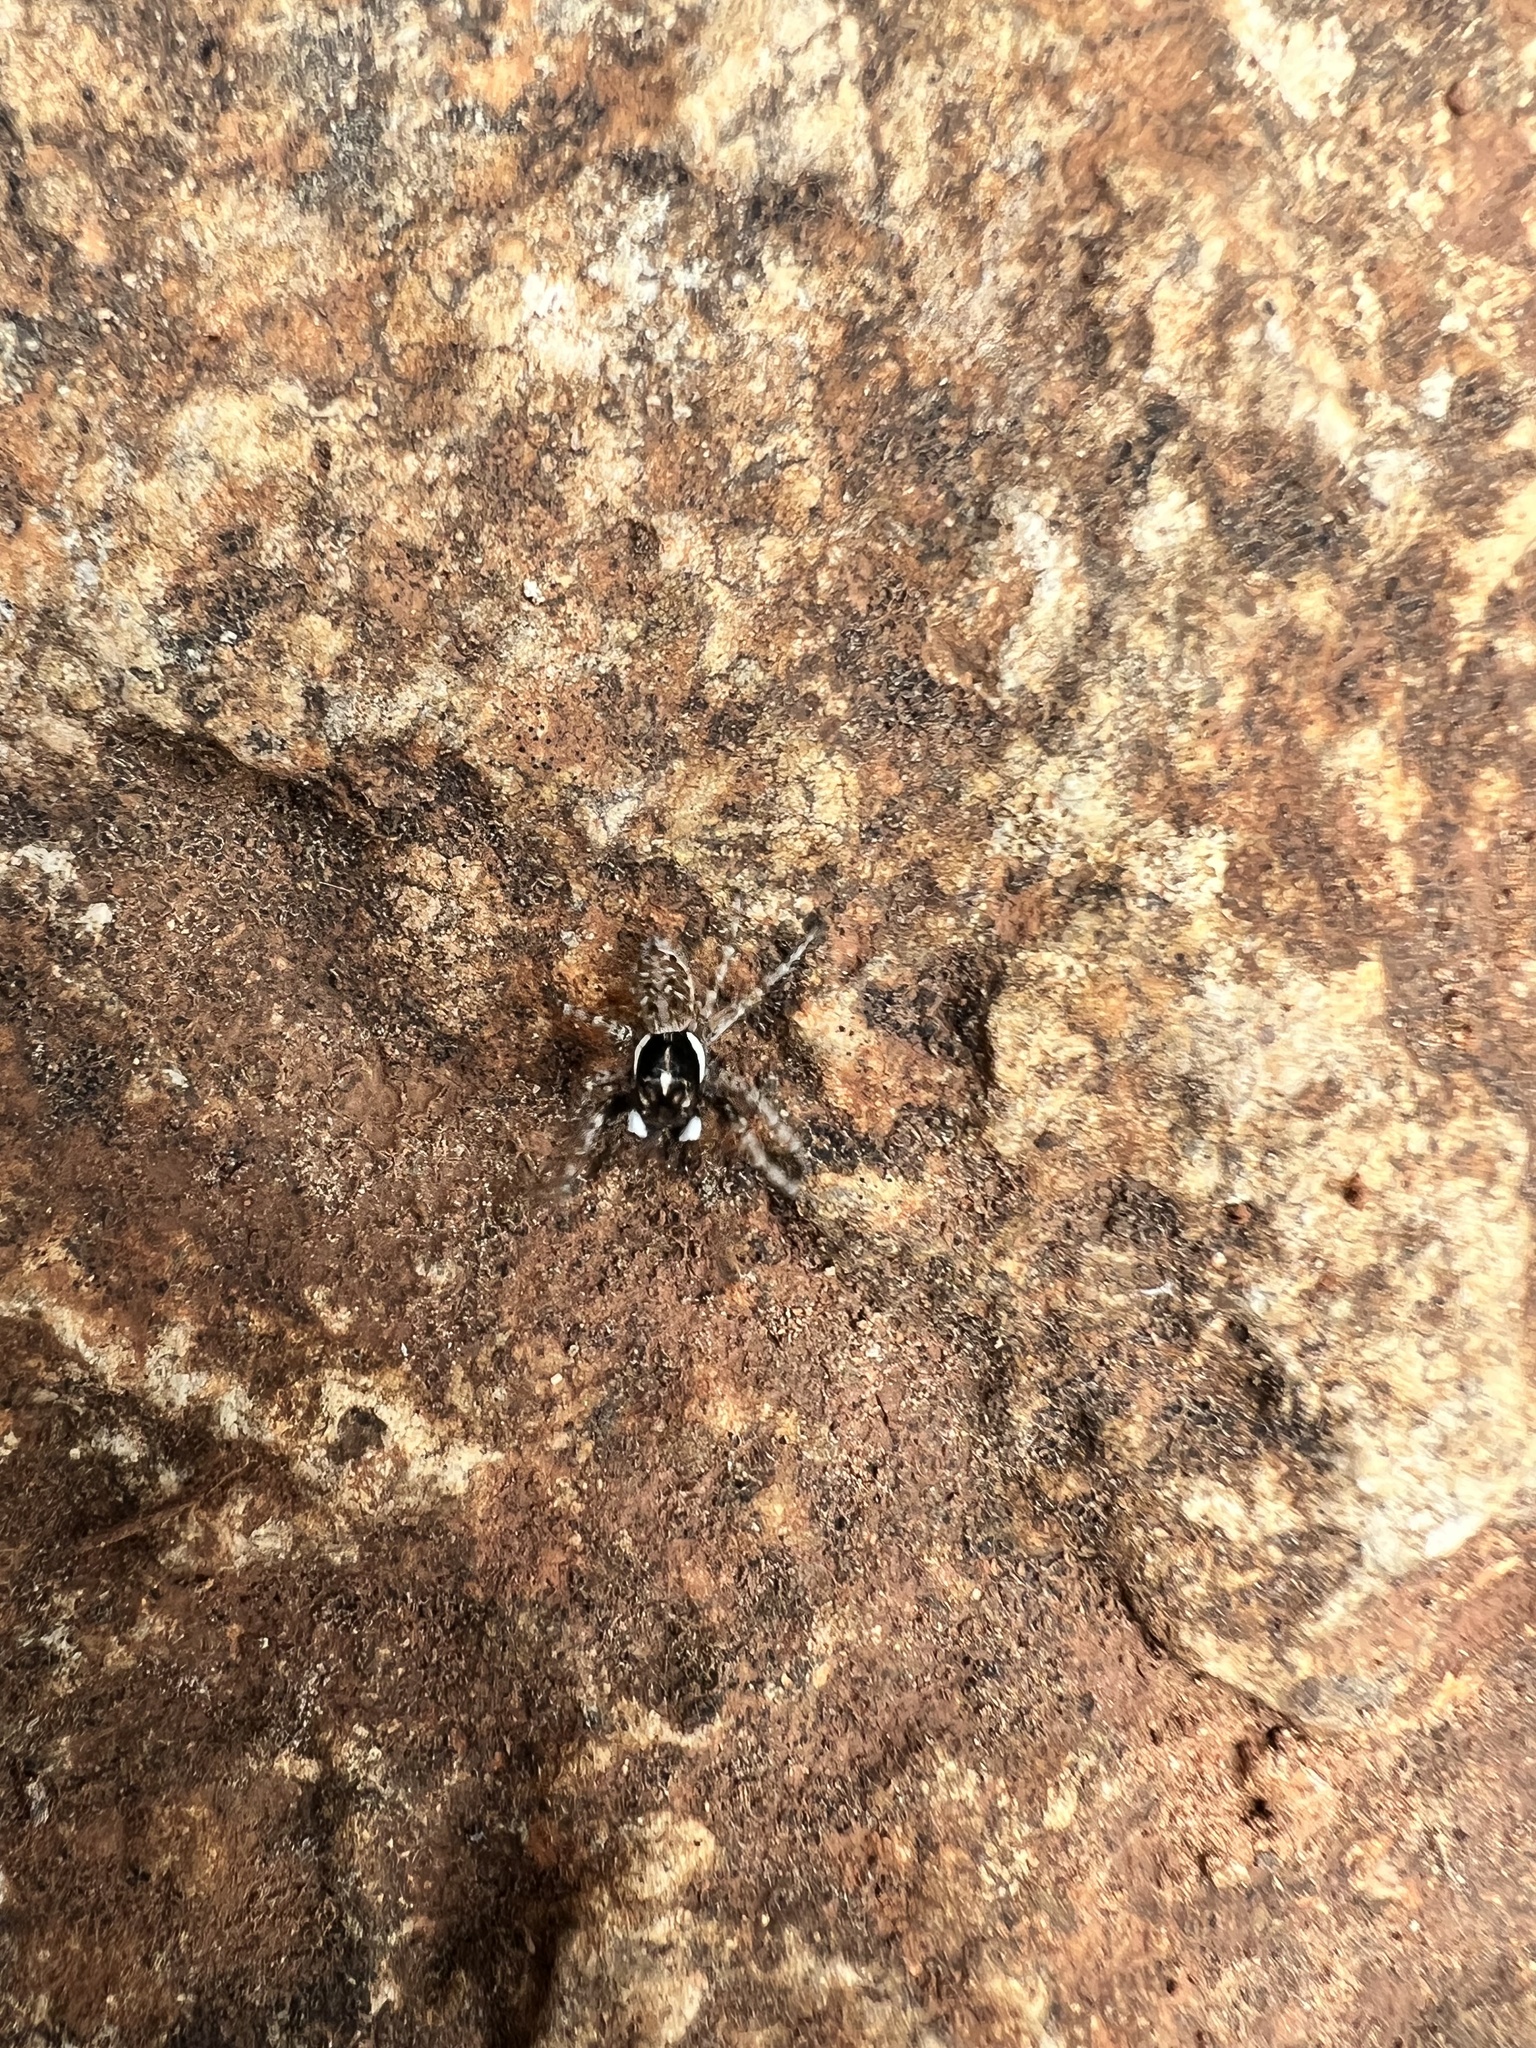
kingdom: Animalia
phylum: Arthropoda
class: Arachnida
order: Araneae
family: Salticidae
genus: Menemerus
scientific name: Menemerus semilimbatus
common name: Jumping spider
